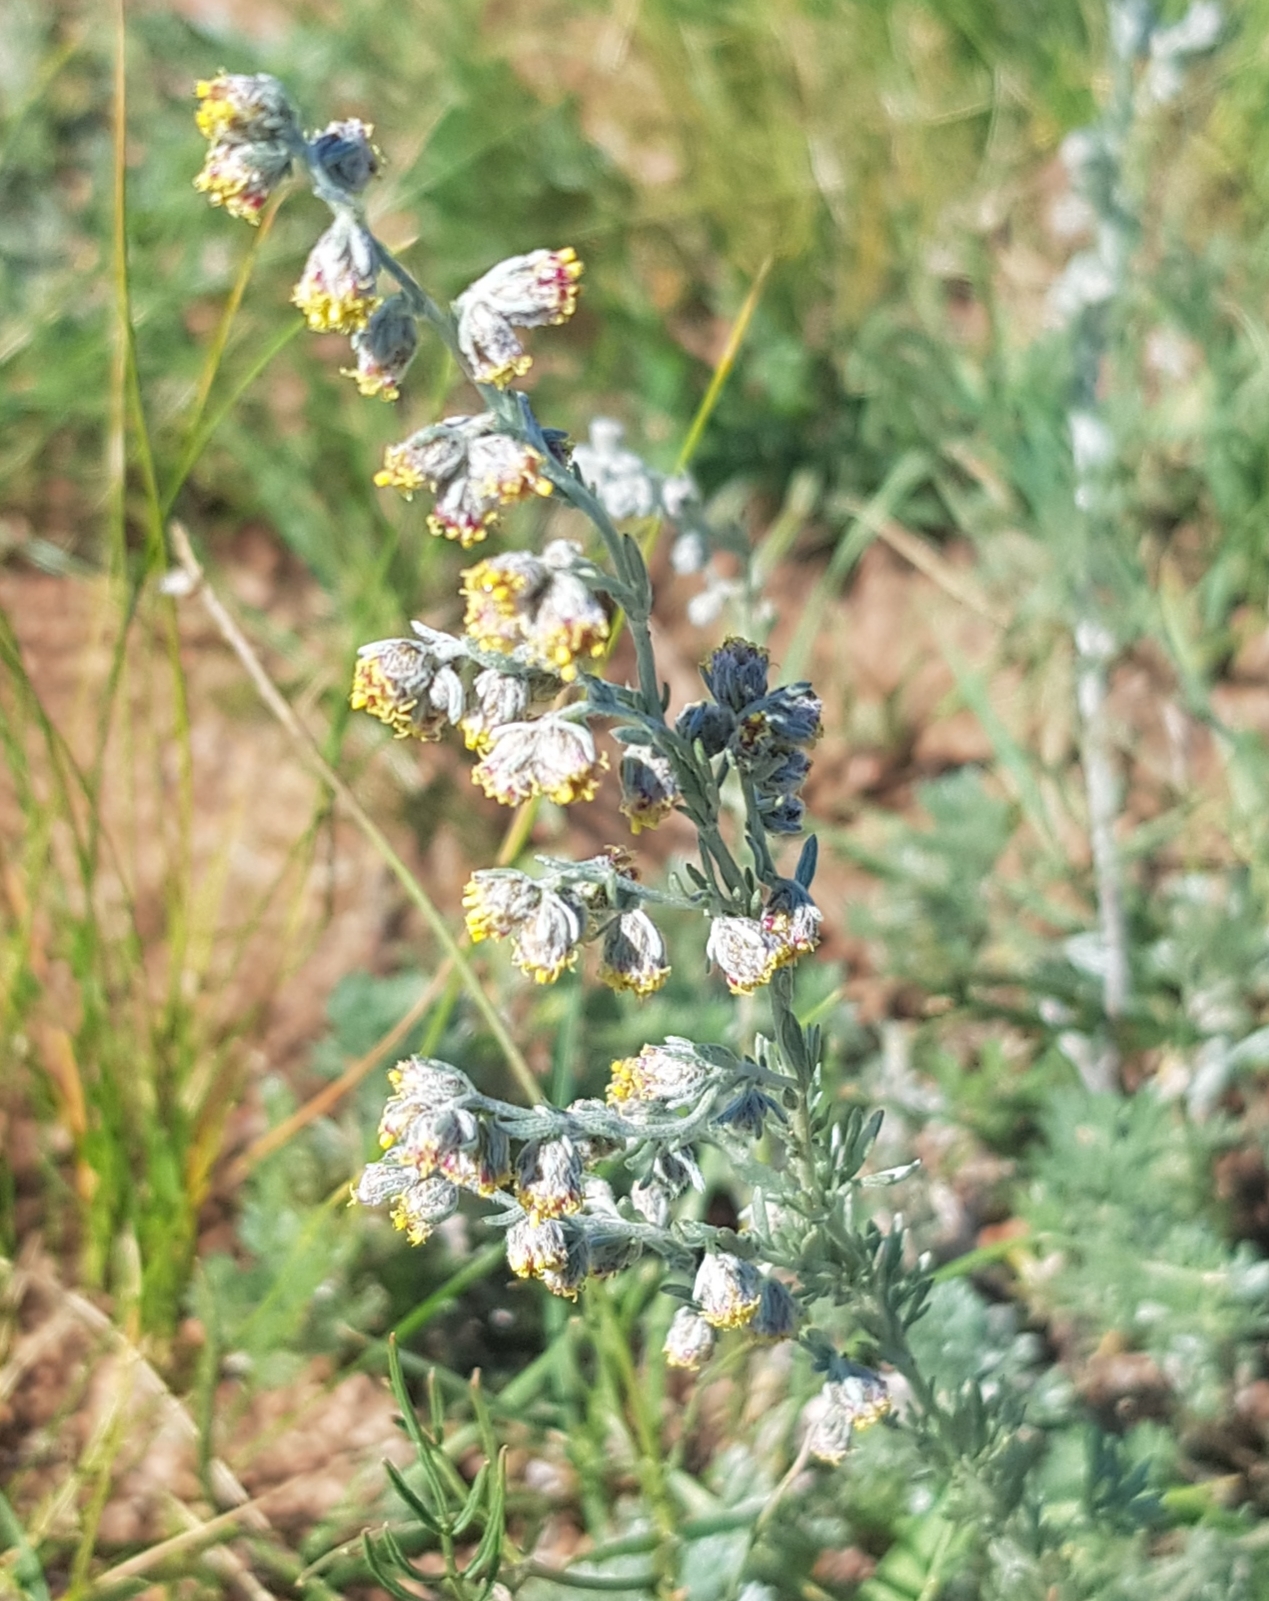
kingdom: Plantae
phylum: Tracheophyta
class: Magnoliopsida
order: Asterales
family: Asteraceae
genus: Artemisia
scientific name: Artemisia frigida
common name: Prairie sagewort
